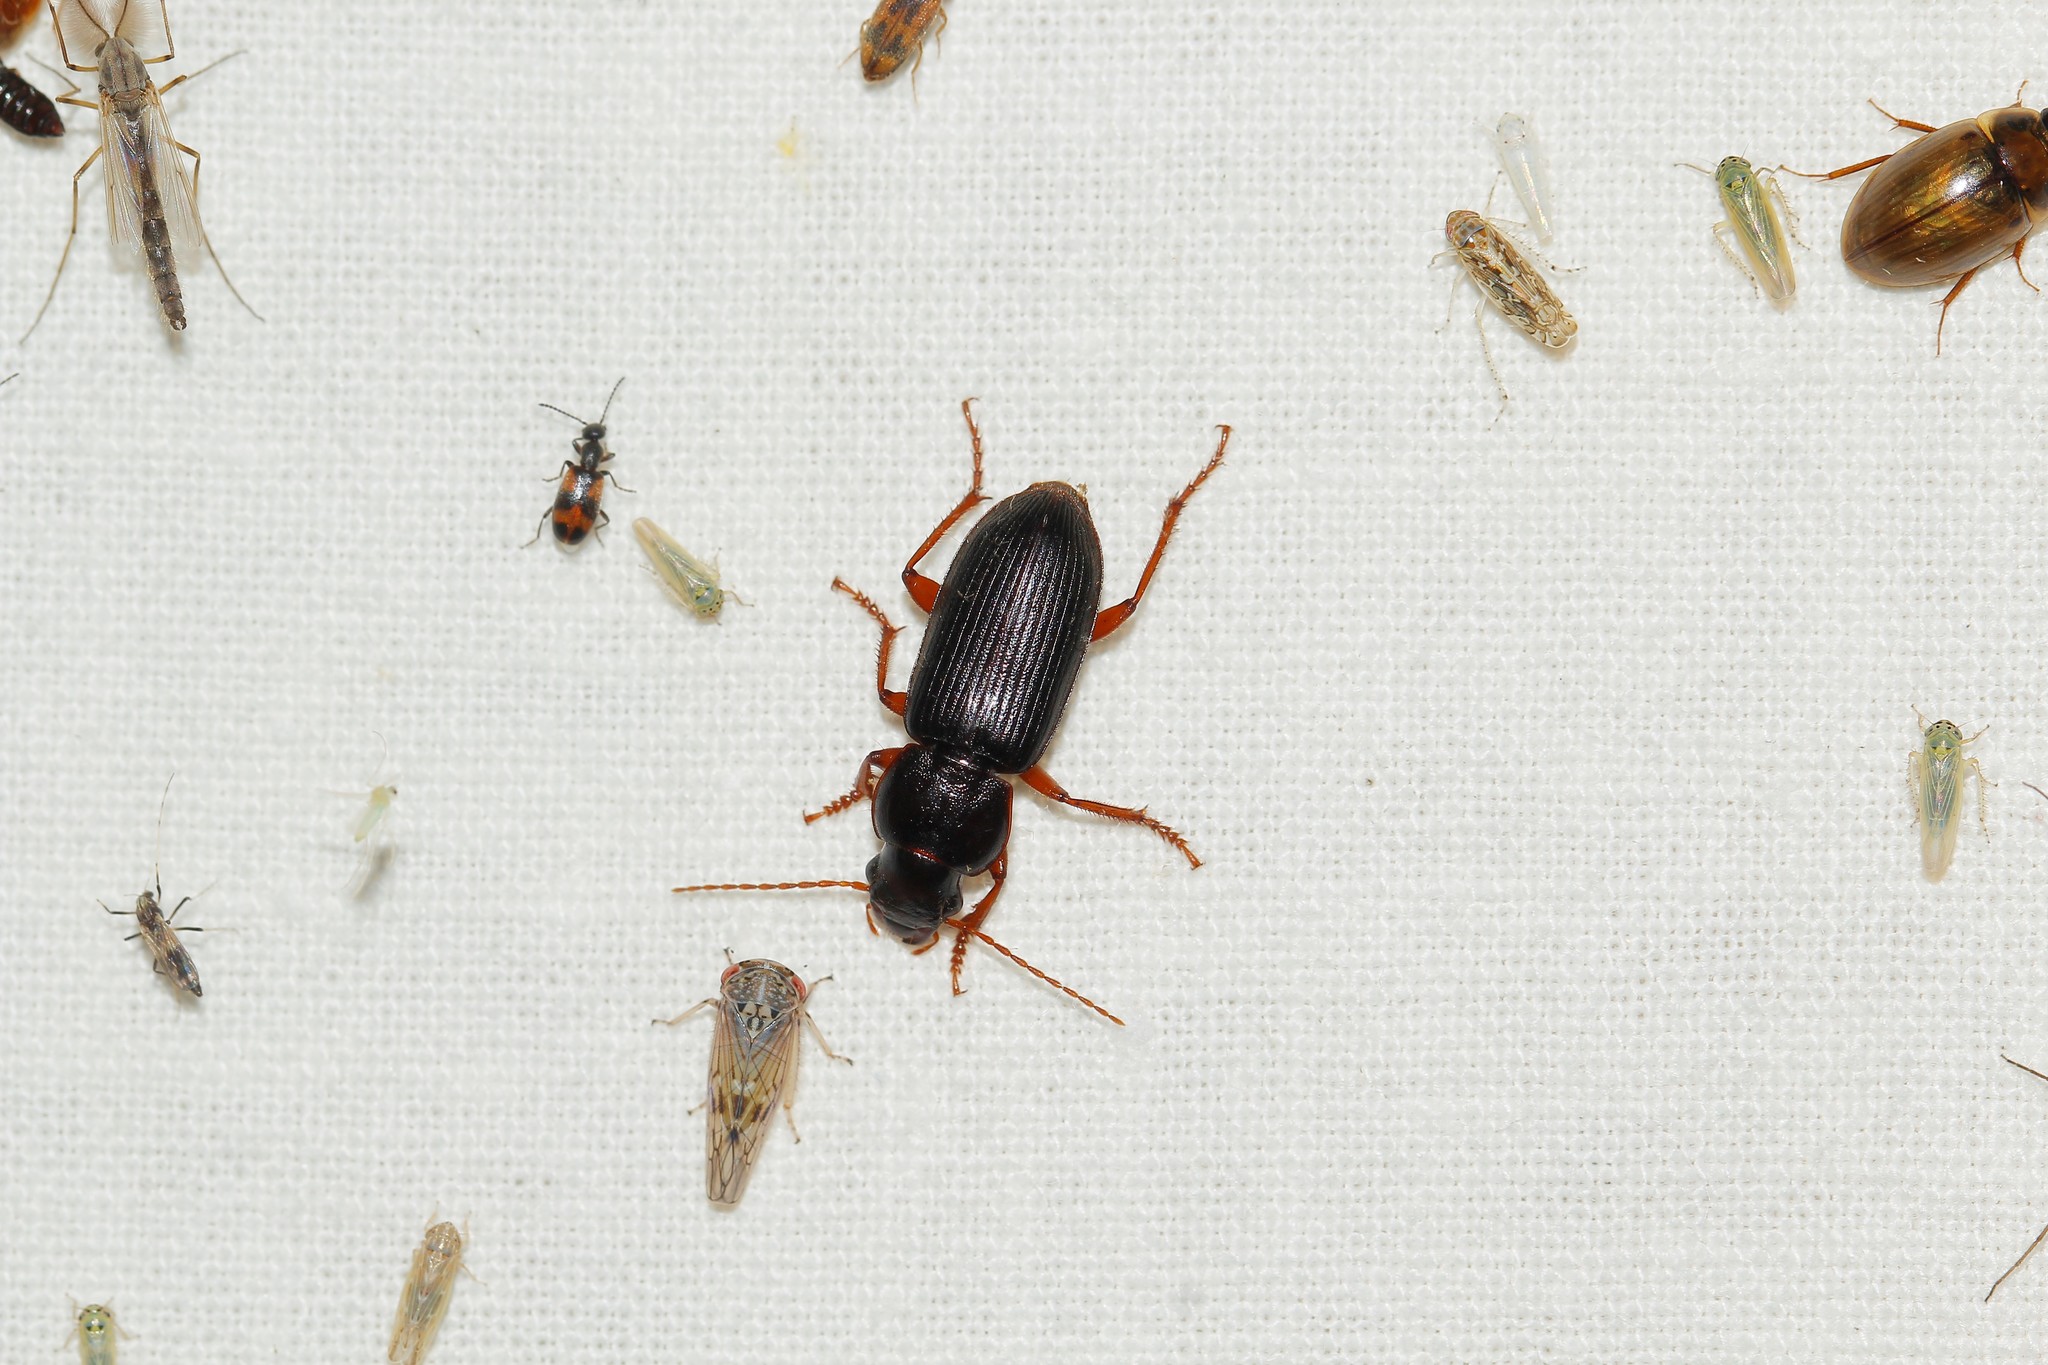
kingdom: Animalia
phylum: Arthropoda
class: Insecta
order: Coleoptera
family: Carabidae
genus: Harpalus
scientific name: Harpalus cephalotes
